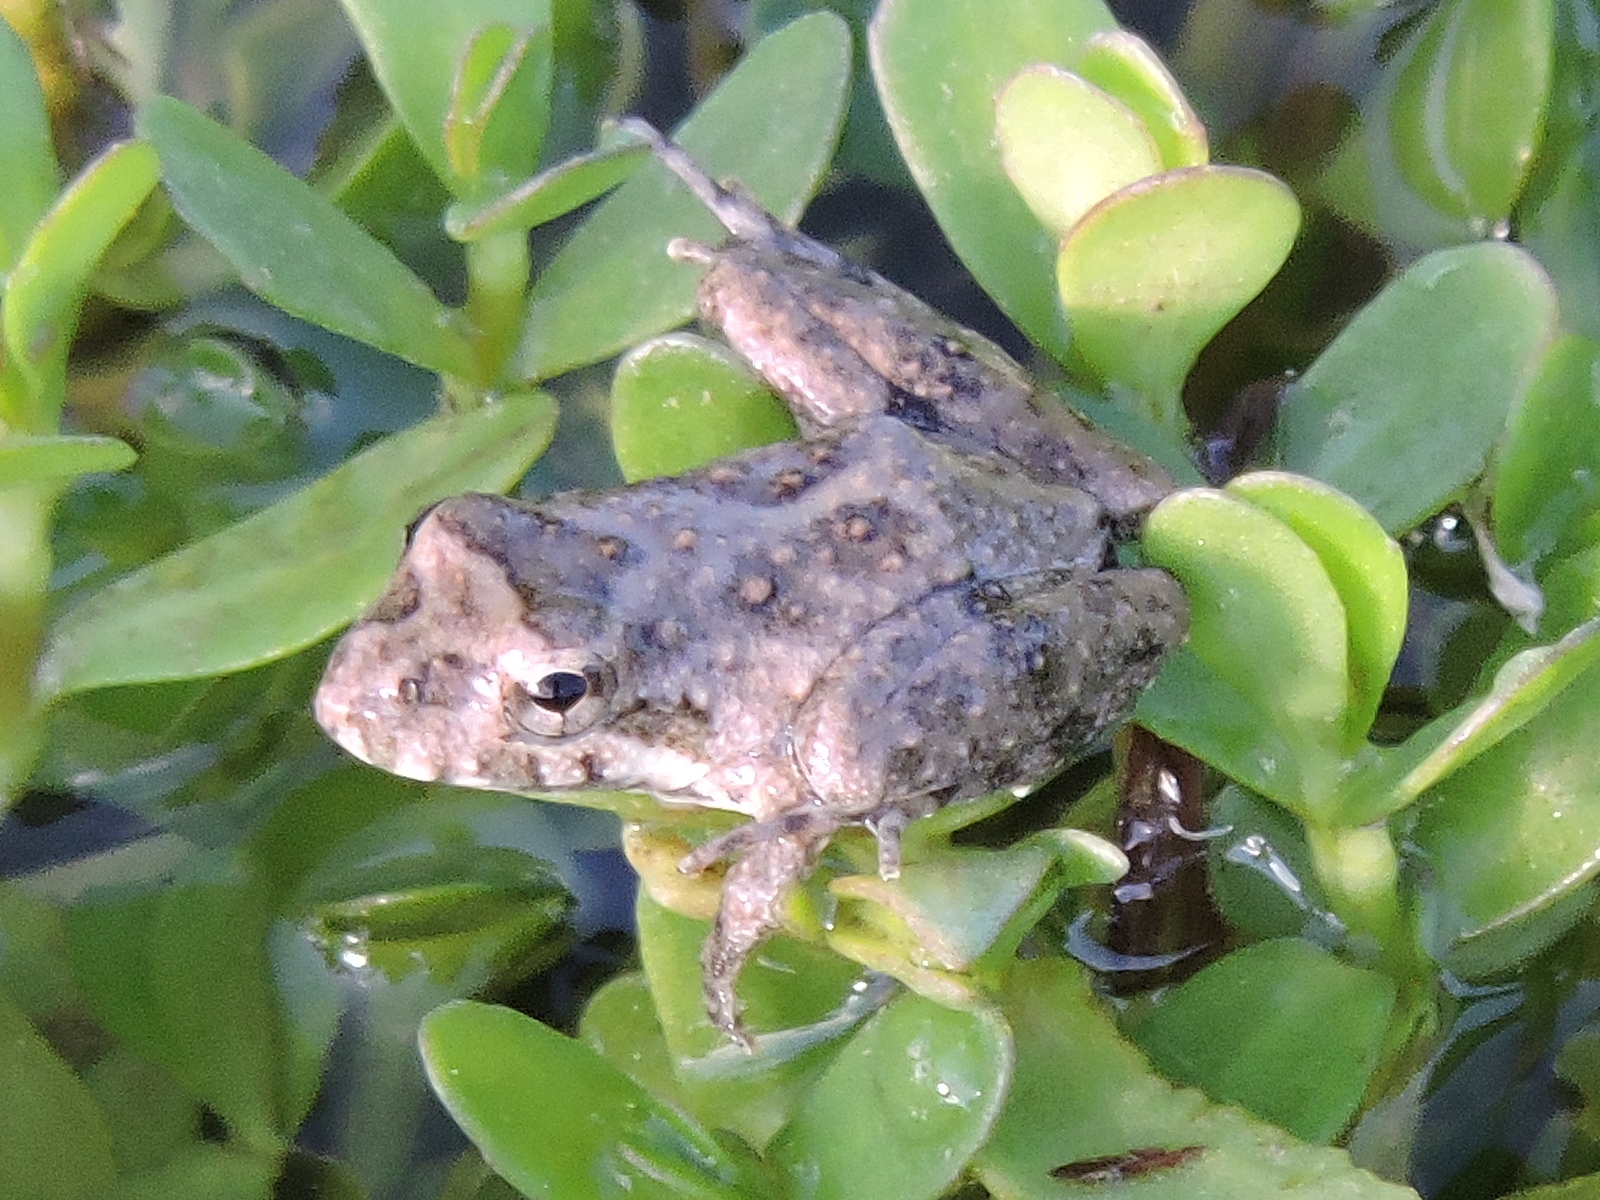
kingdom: Animalia
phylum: Chordata
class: Amphibia
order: Anura
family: Hylidae
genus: Acris
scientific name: Acris blanchardi
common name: Blanchard's cricket frog
